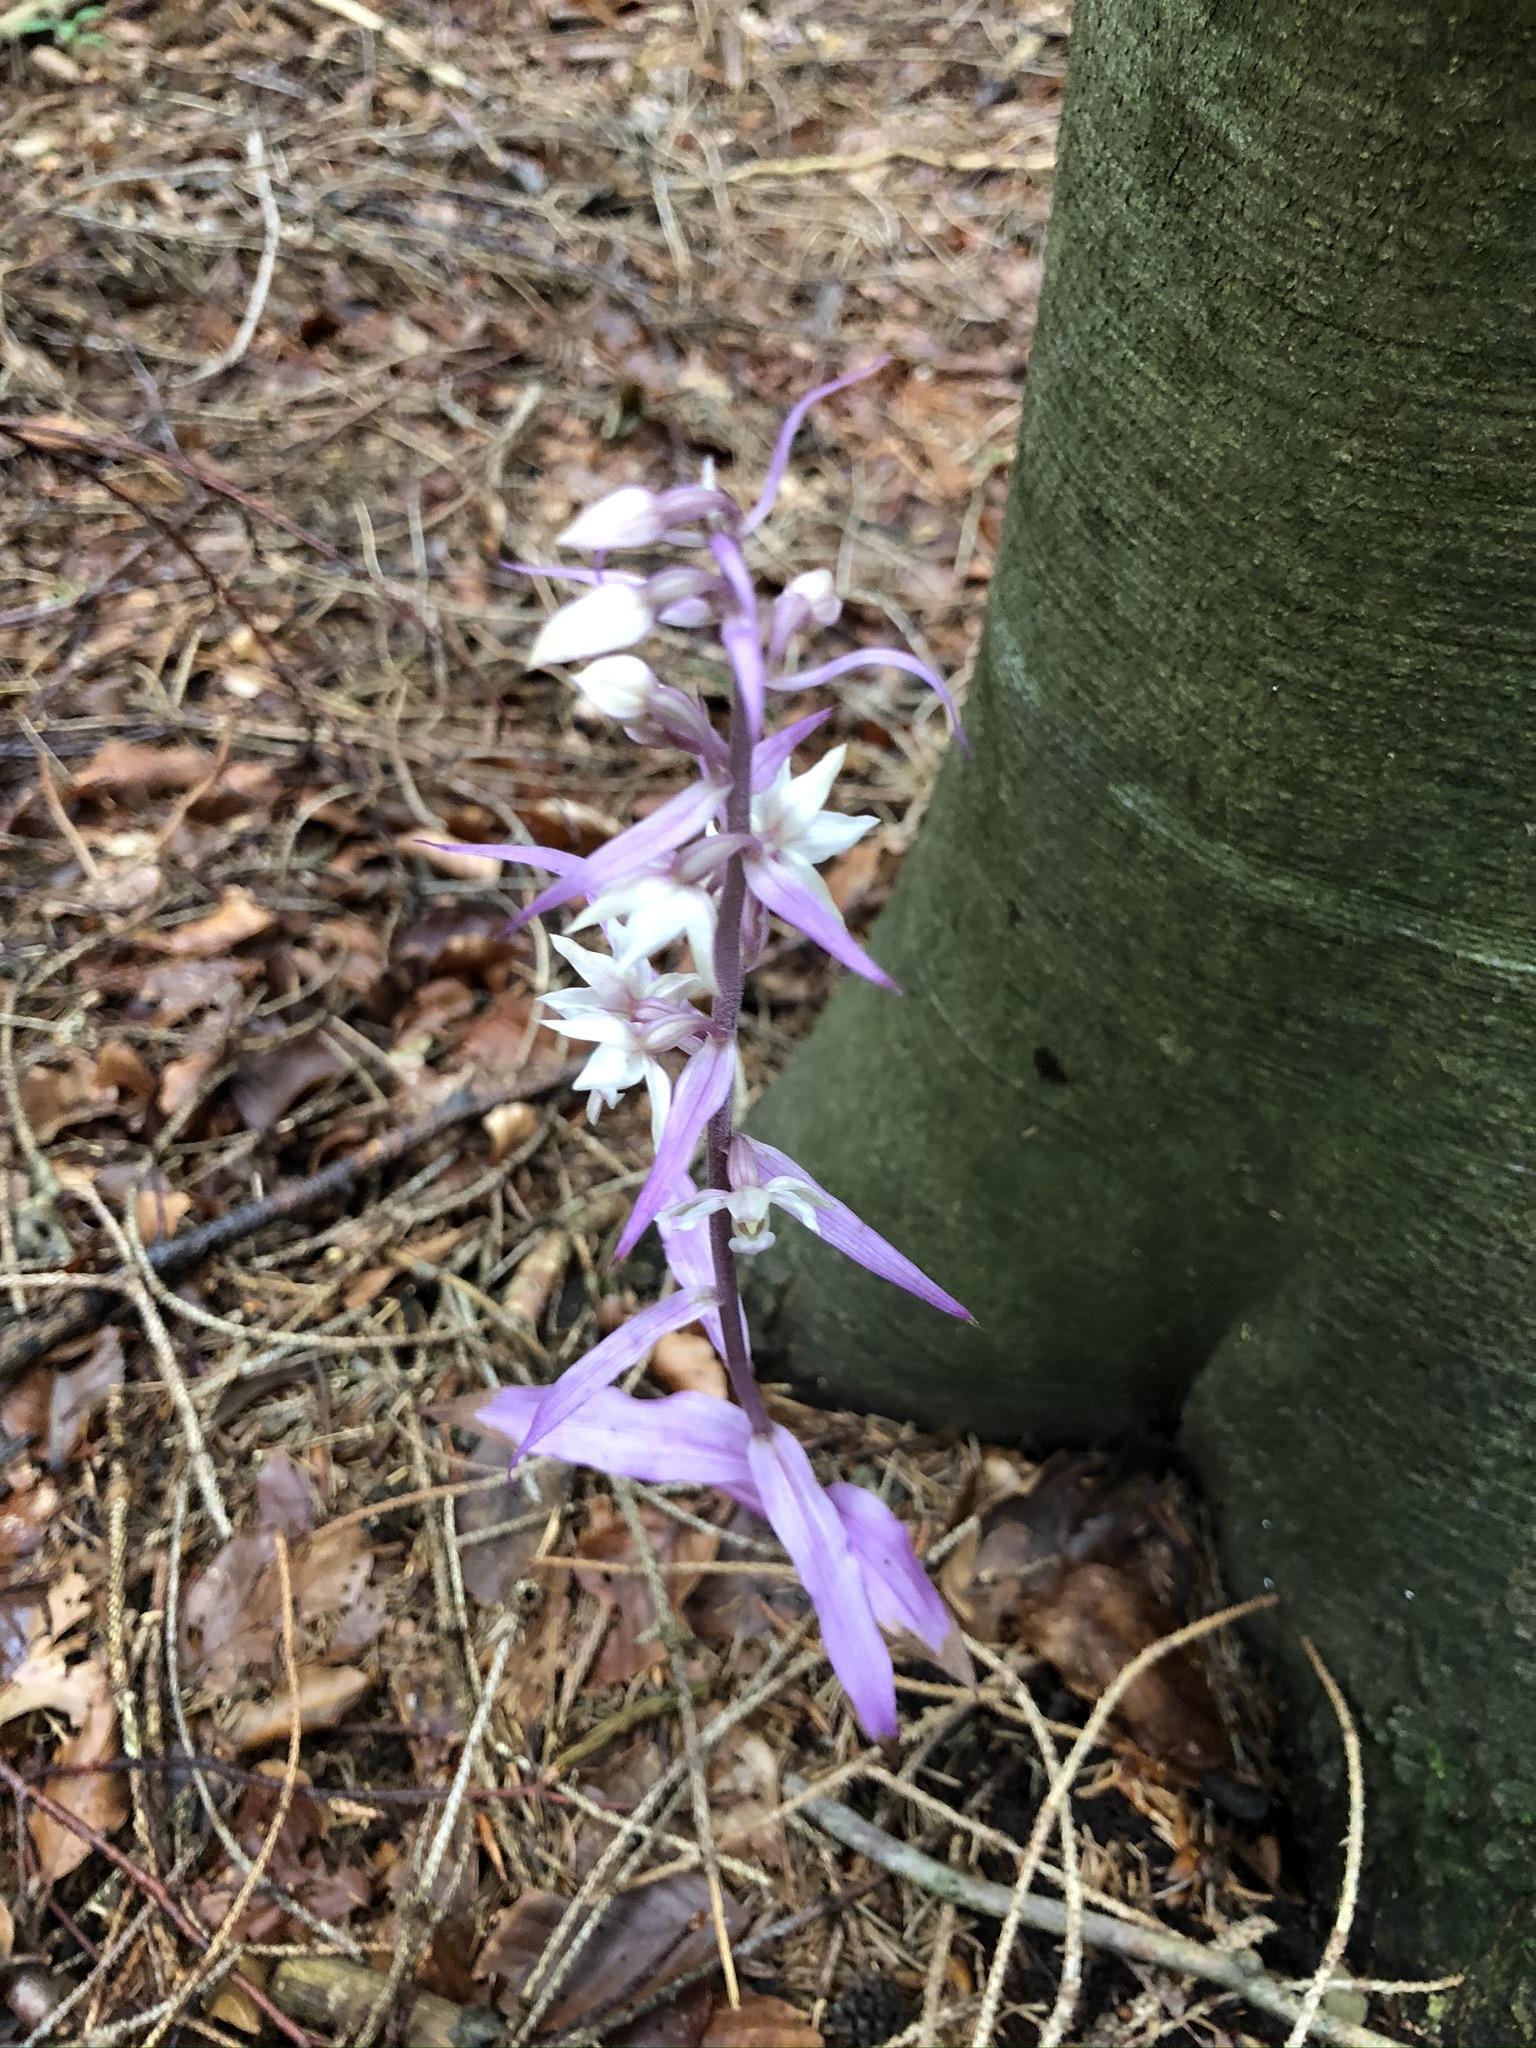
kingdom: Plantae
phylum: Tracheophyta
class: Liliopsida
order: Asparagales
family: Orchidaceae
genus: Epipactis
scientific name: Epipactis purpurata
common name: Violet helleborine
